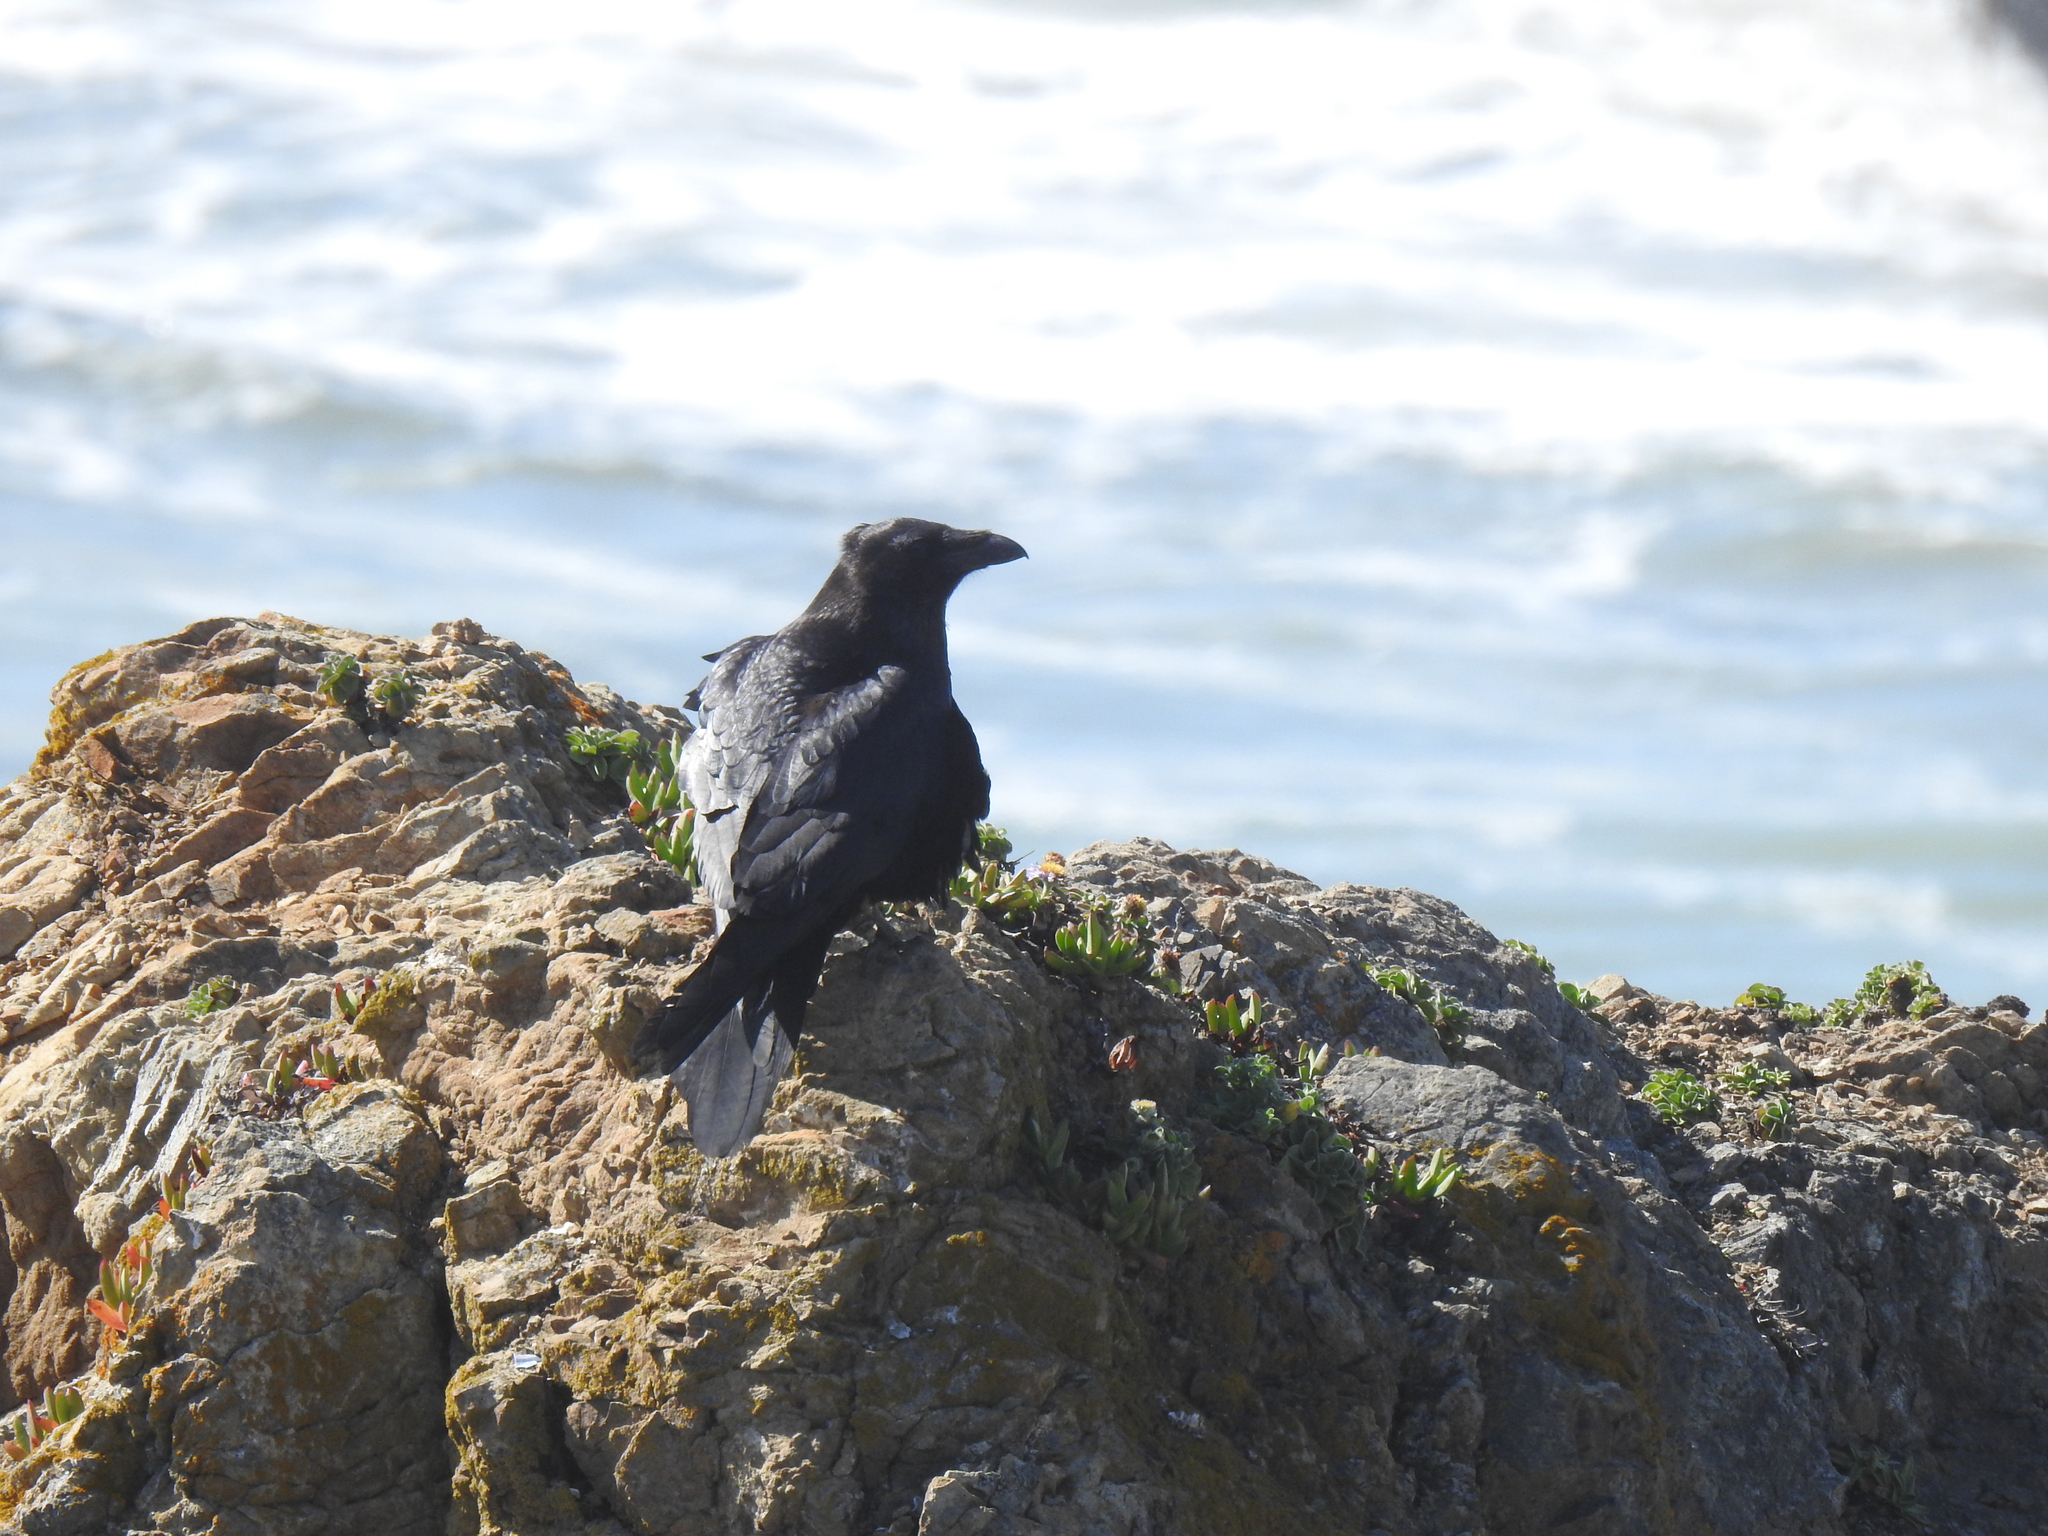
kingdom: Animalia
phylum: Chordata
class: Aves
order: Passeriformes
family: Corvidae
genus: Corvus
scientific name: Corvus corax
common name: Common raven
